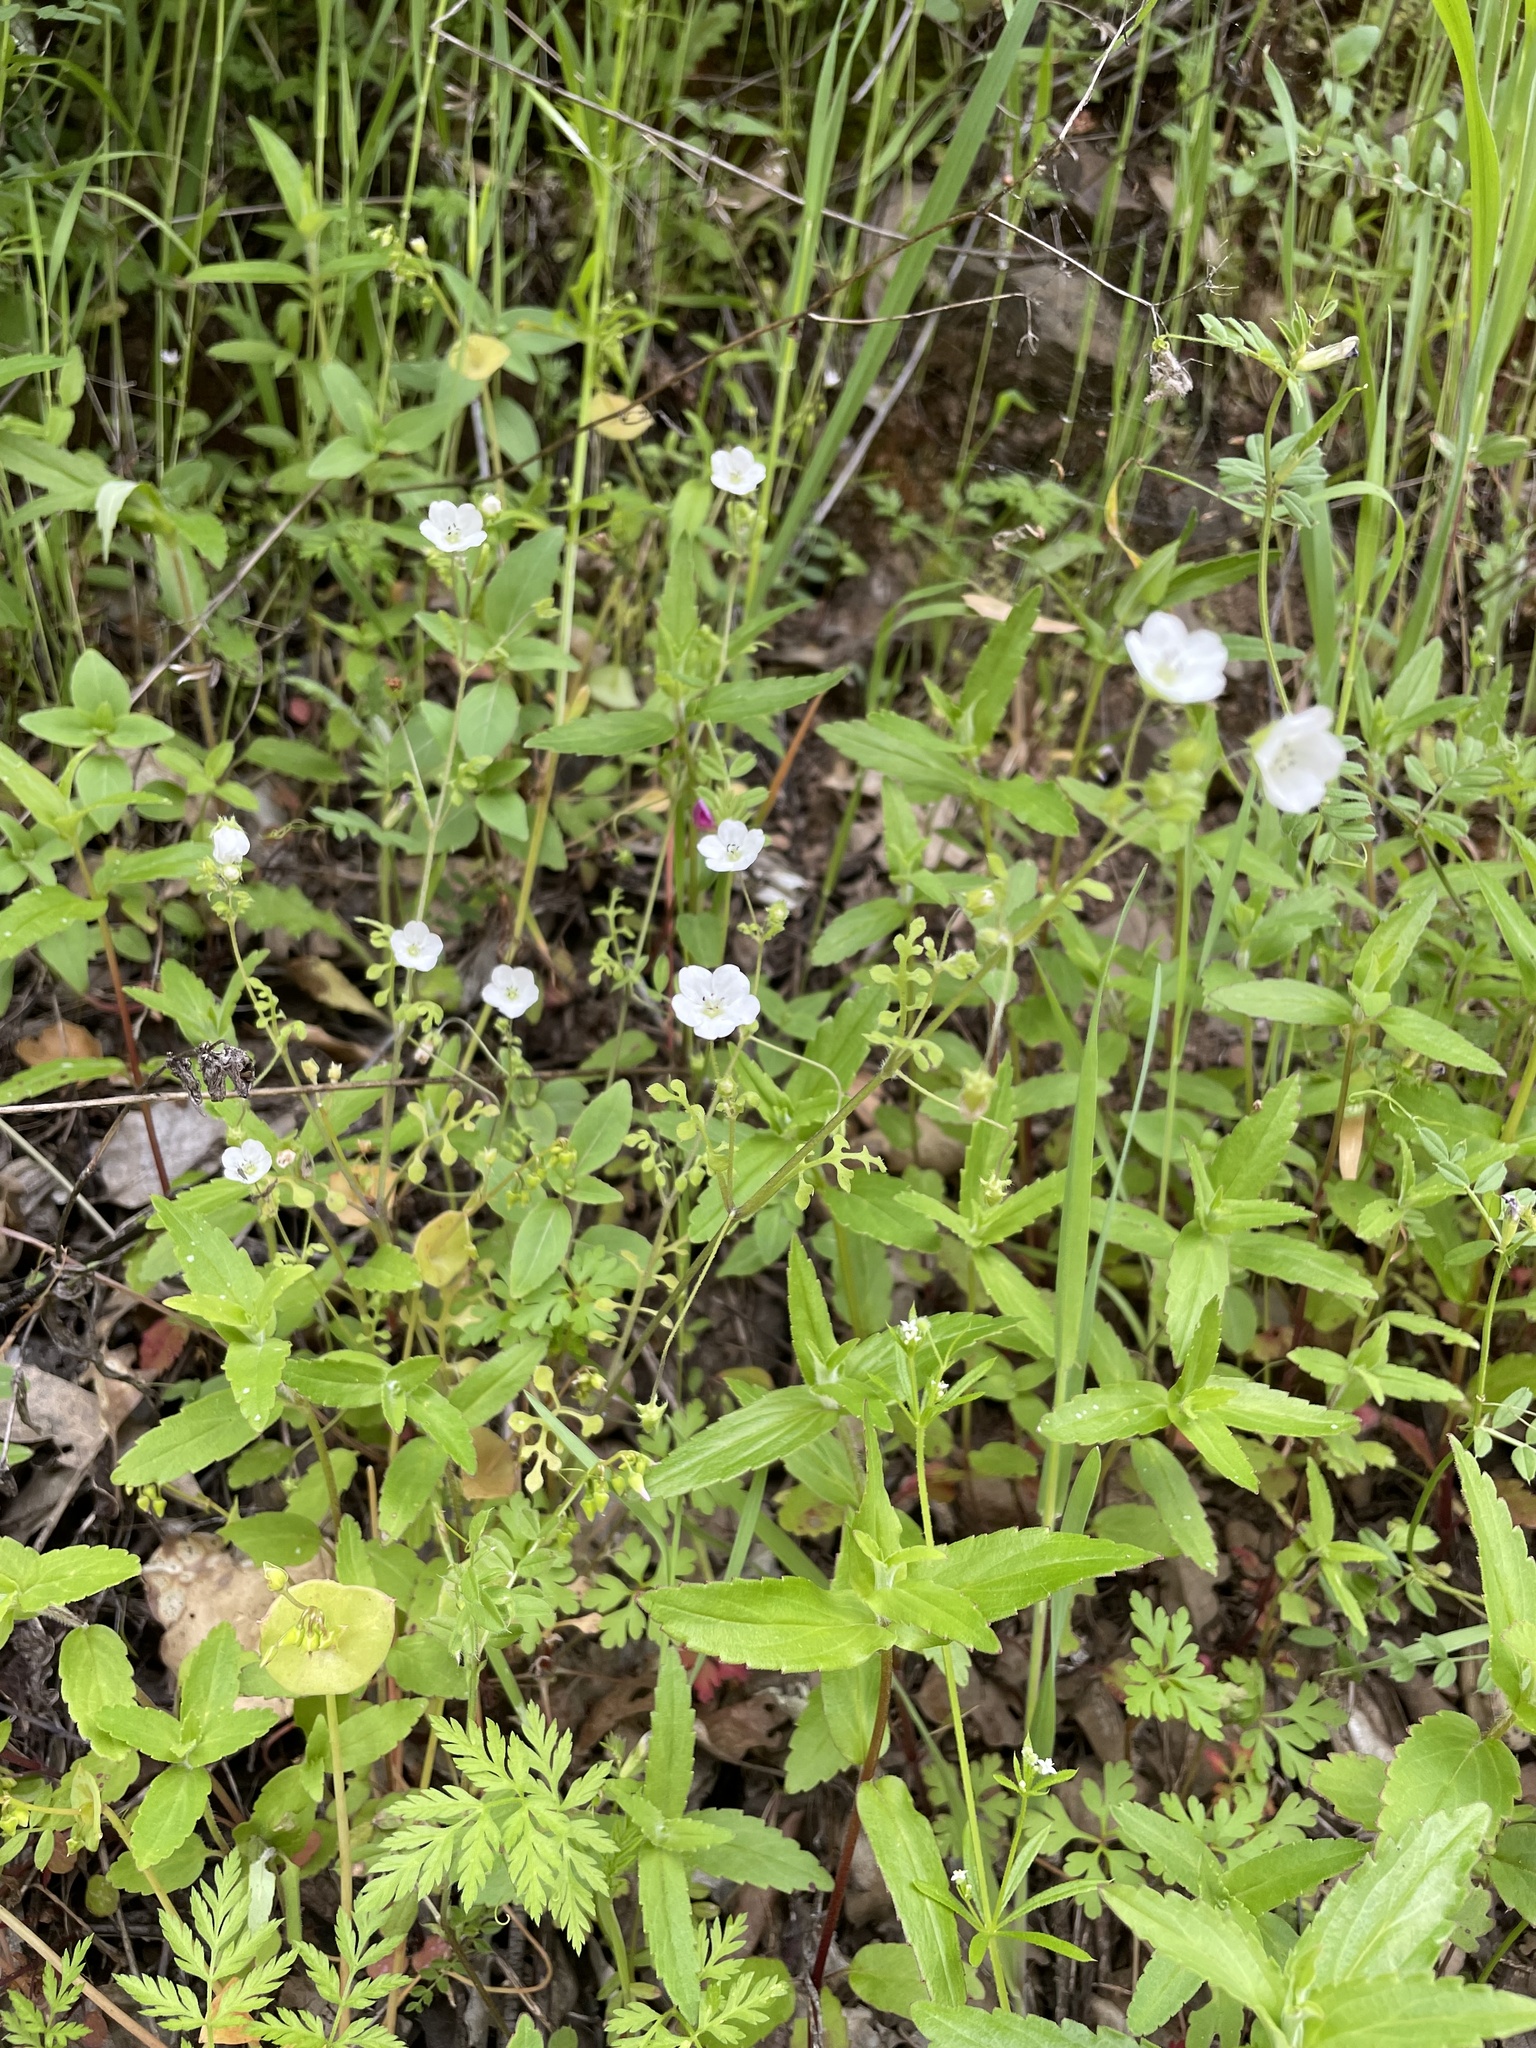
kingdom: Plantae
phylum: Tracheophyta
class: Magnoliopsida
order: Boraginales
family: Hydrophyllaceae
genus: Nemophila
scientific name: Nemophila heterophylla
